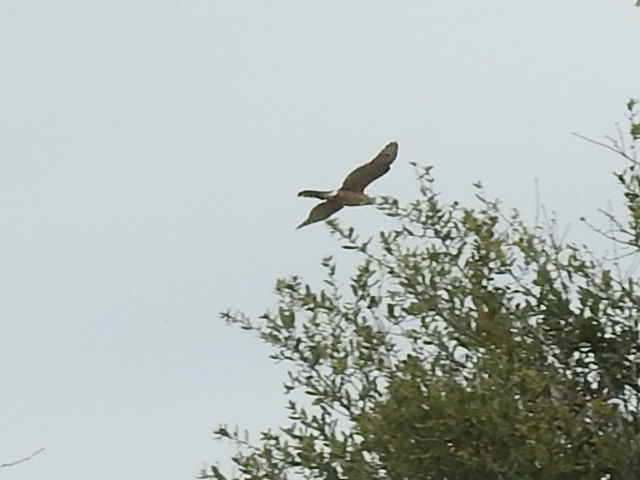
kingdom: Animalia
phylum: Chordata
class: Aves
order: Accipitriformes
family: Accipitridae
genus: Accipiter
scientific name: Accipiter cooperii
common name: Cooper's hawk
